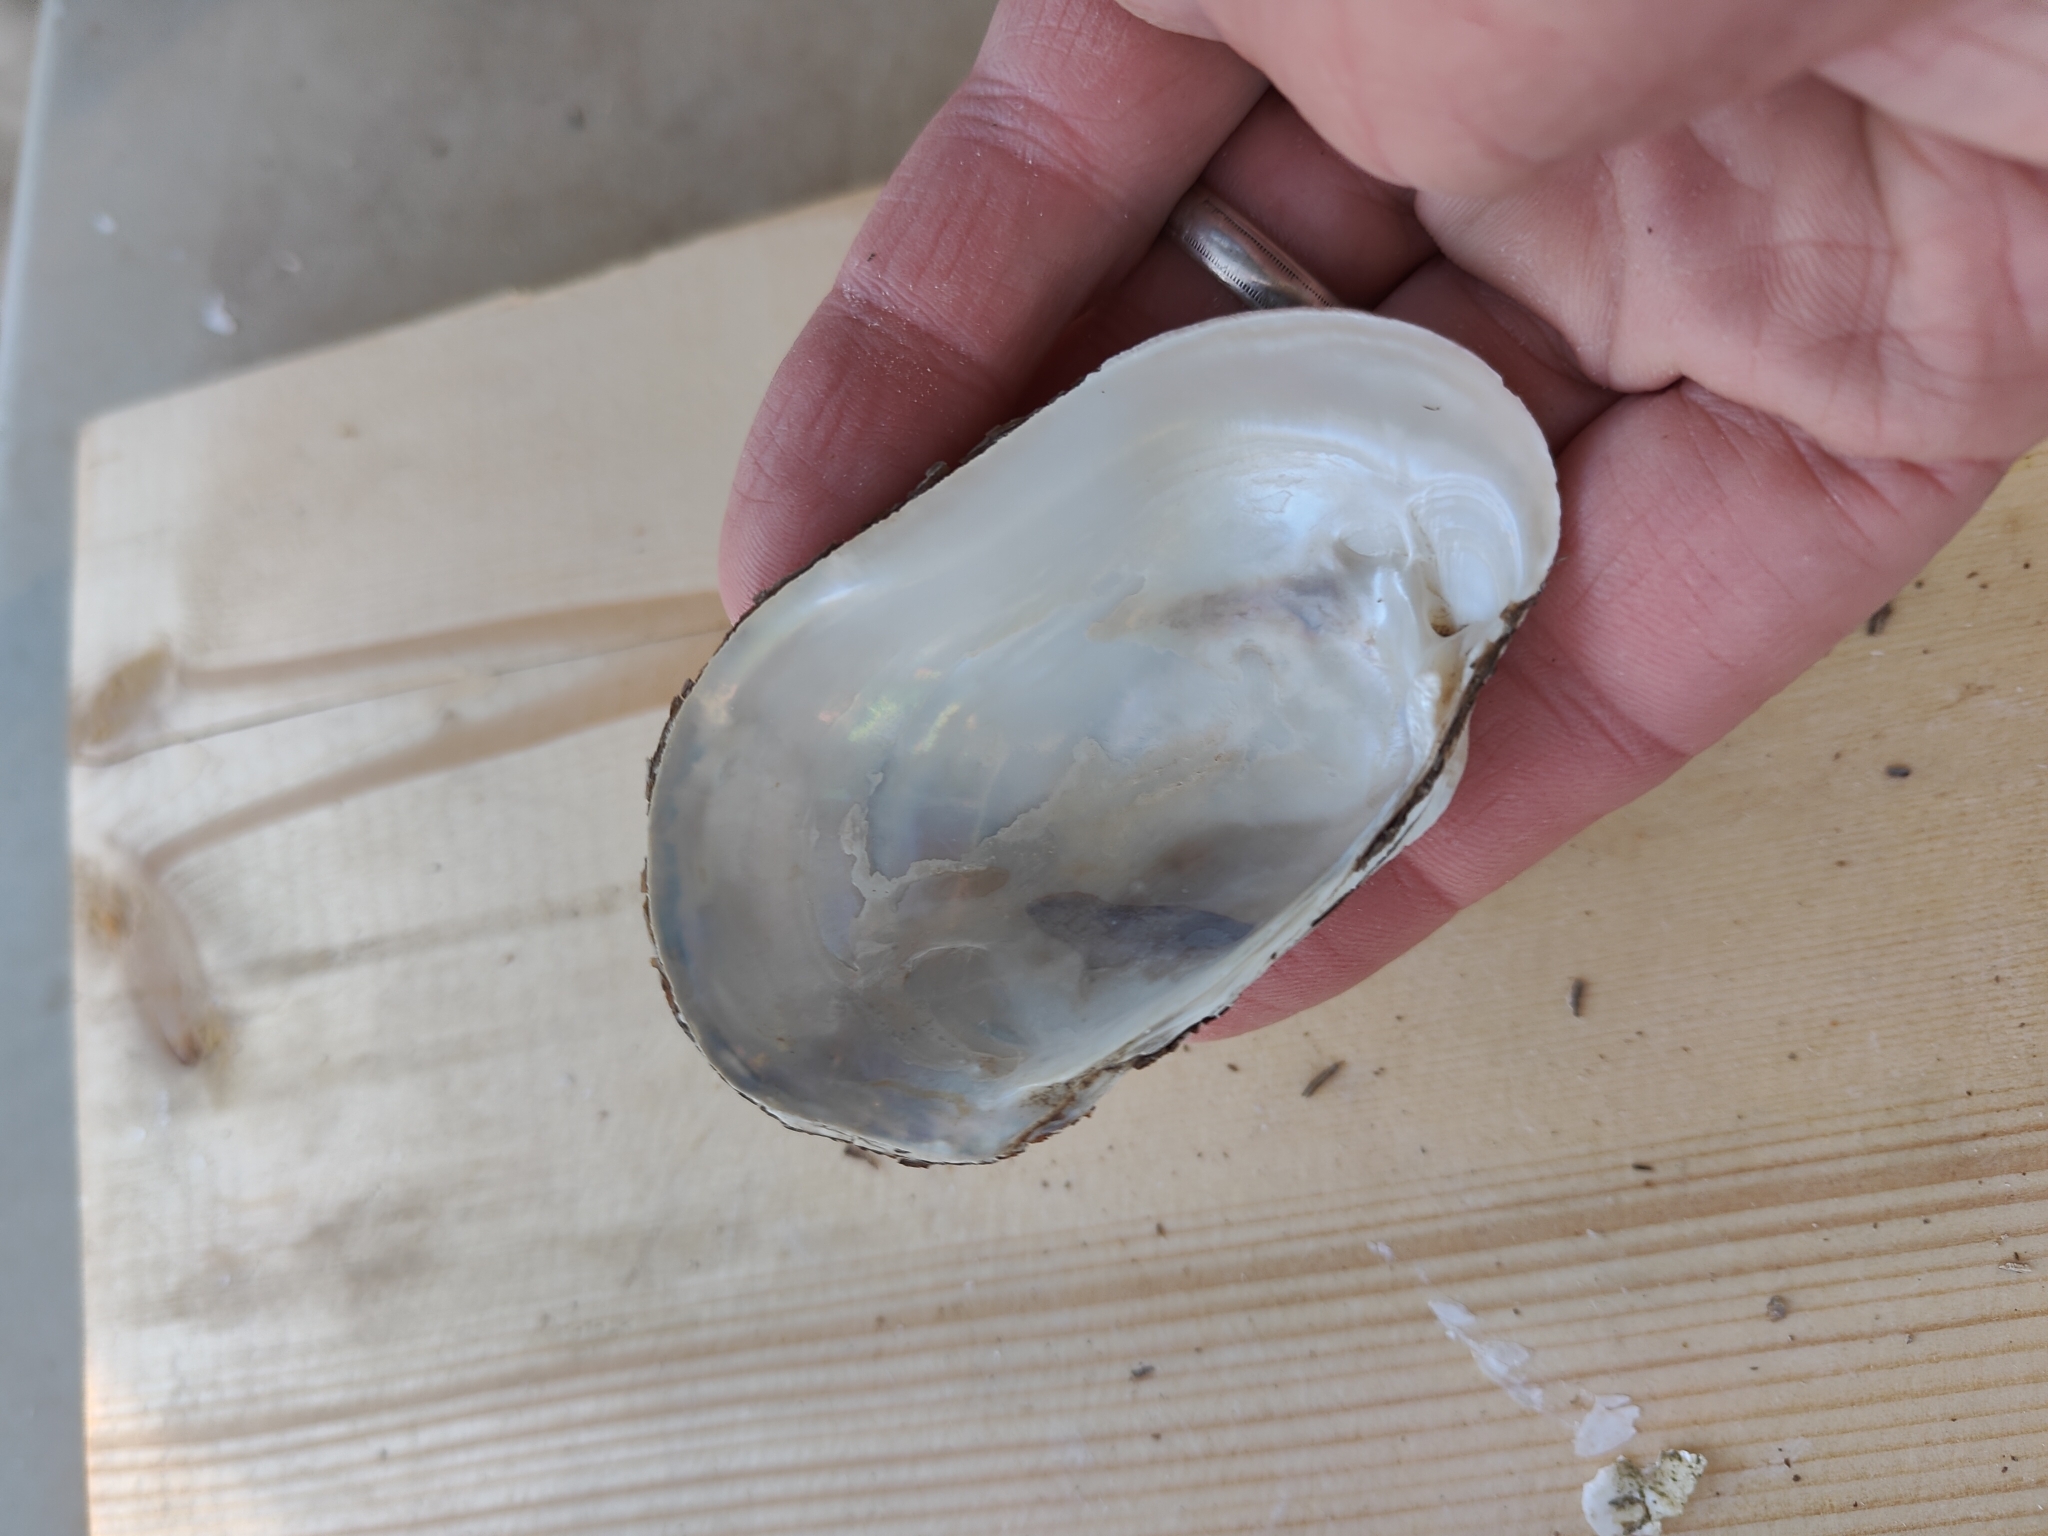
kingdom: Animalia
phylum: Mollusca
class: Bivalvia
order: Unionida
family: Unionidae
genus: Lampsilis
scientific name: Lampsilis siliquoidea
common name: Fatmucket
